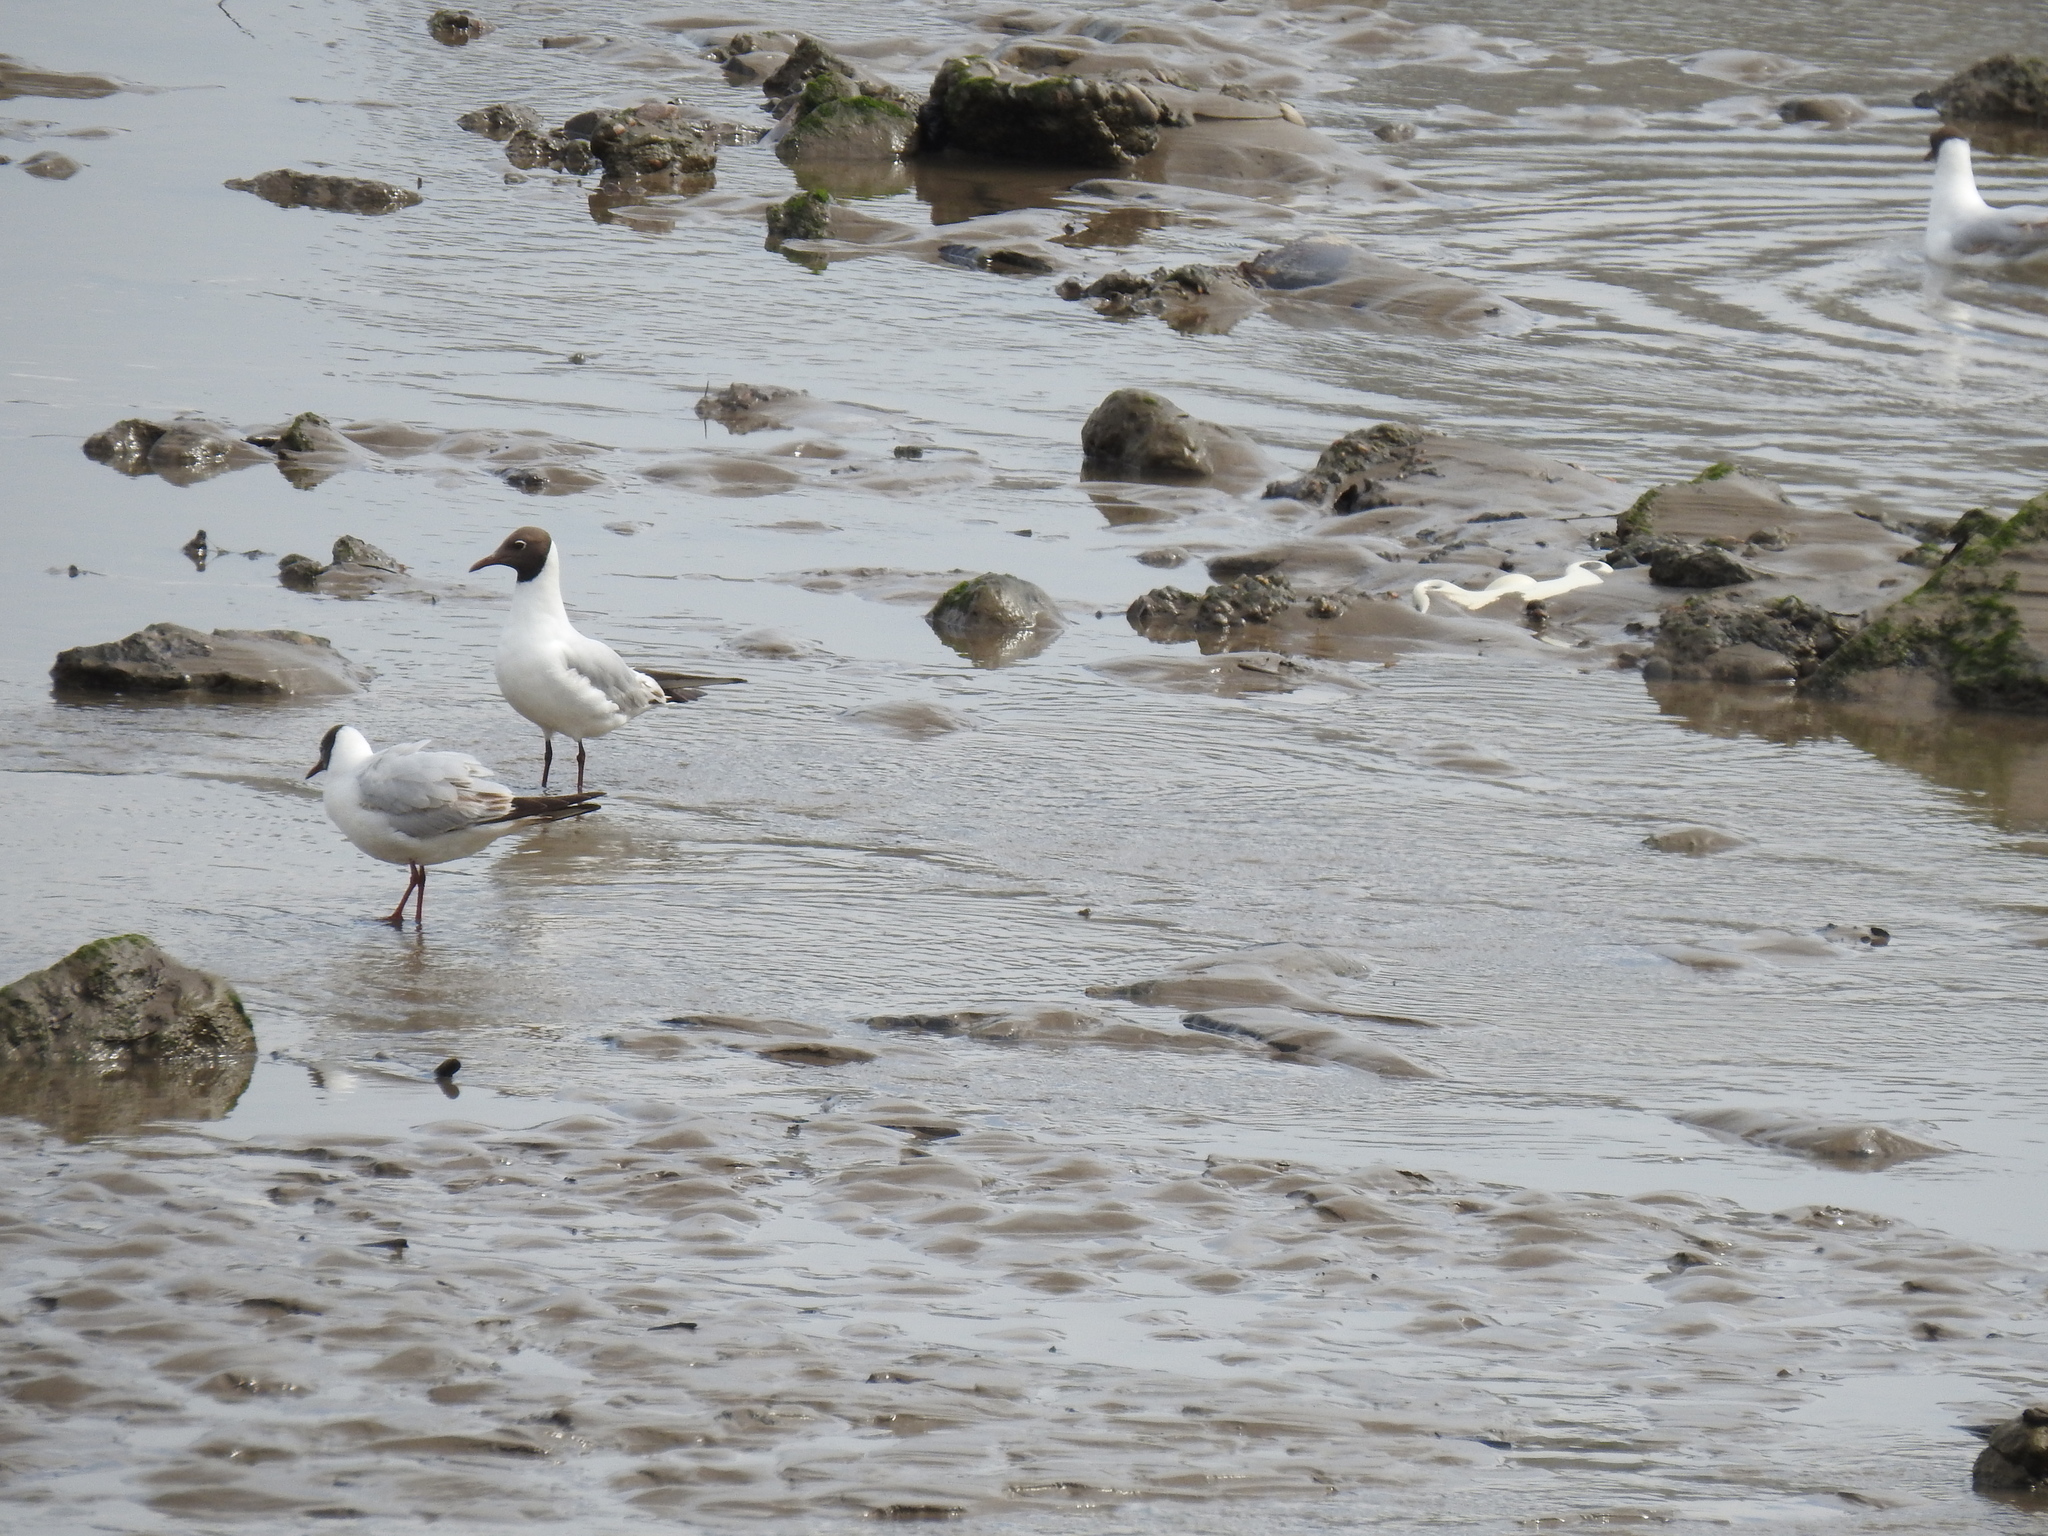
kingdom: Animalia
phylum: Chordata
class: Aves
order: Charadriiformes
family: Laridae
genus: Chroicocephalus
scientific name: Chroicocephalus ridibundus
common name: Black-headed gull
